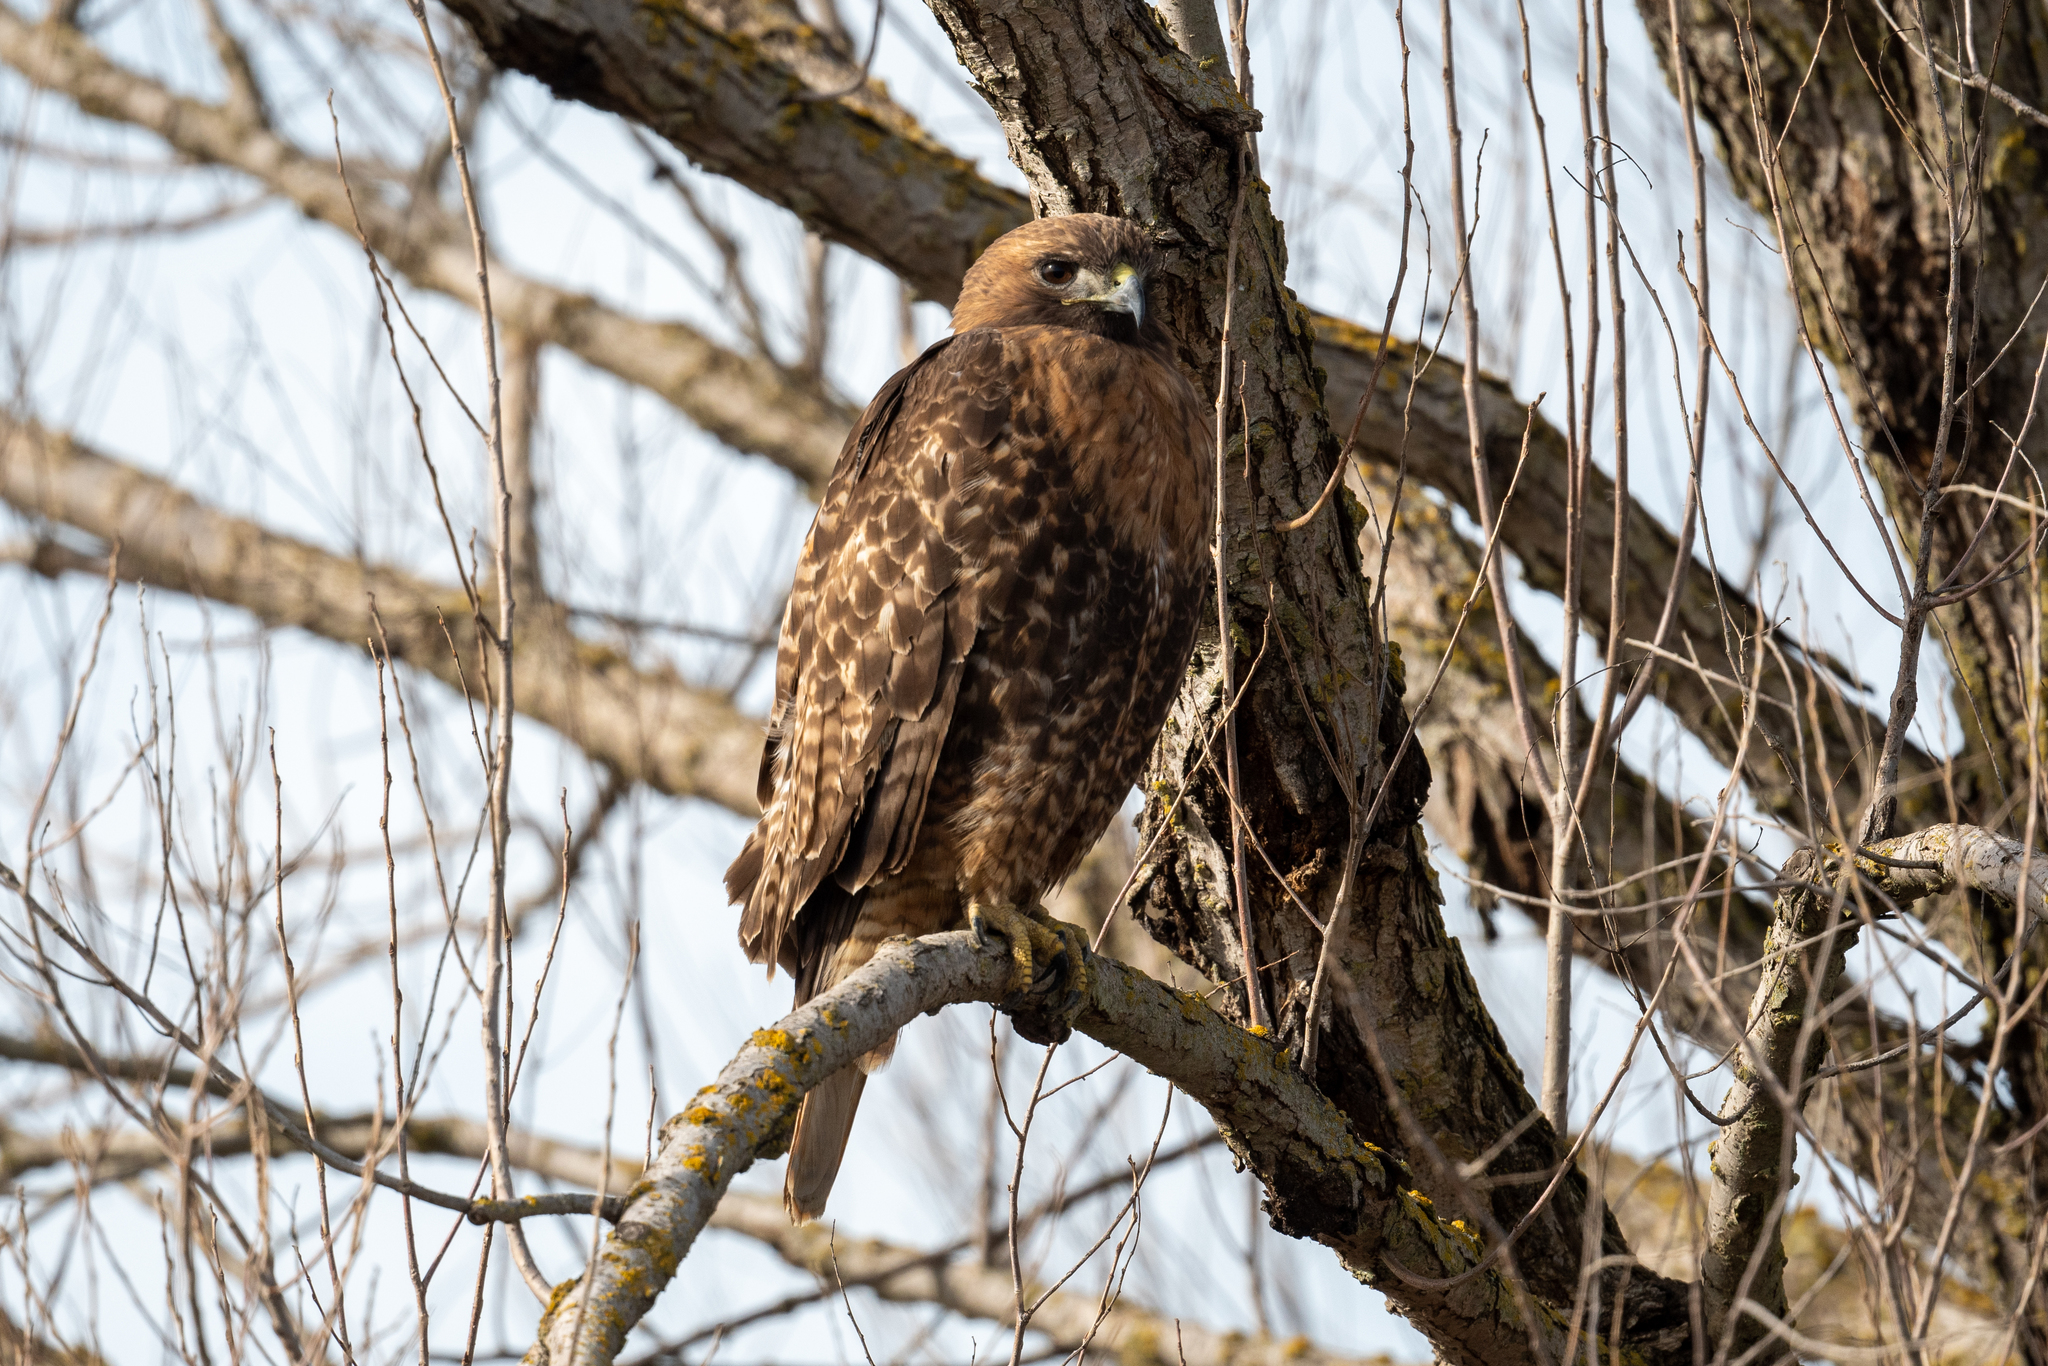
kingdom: Animalia
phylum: Chordata
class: Aves
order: Accipitriformes
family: Accipitridae
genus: Buteo
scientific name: Buteo jamaicensis
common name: Red-tailed hawk
